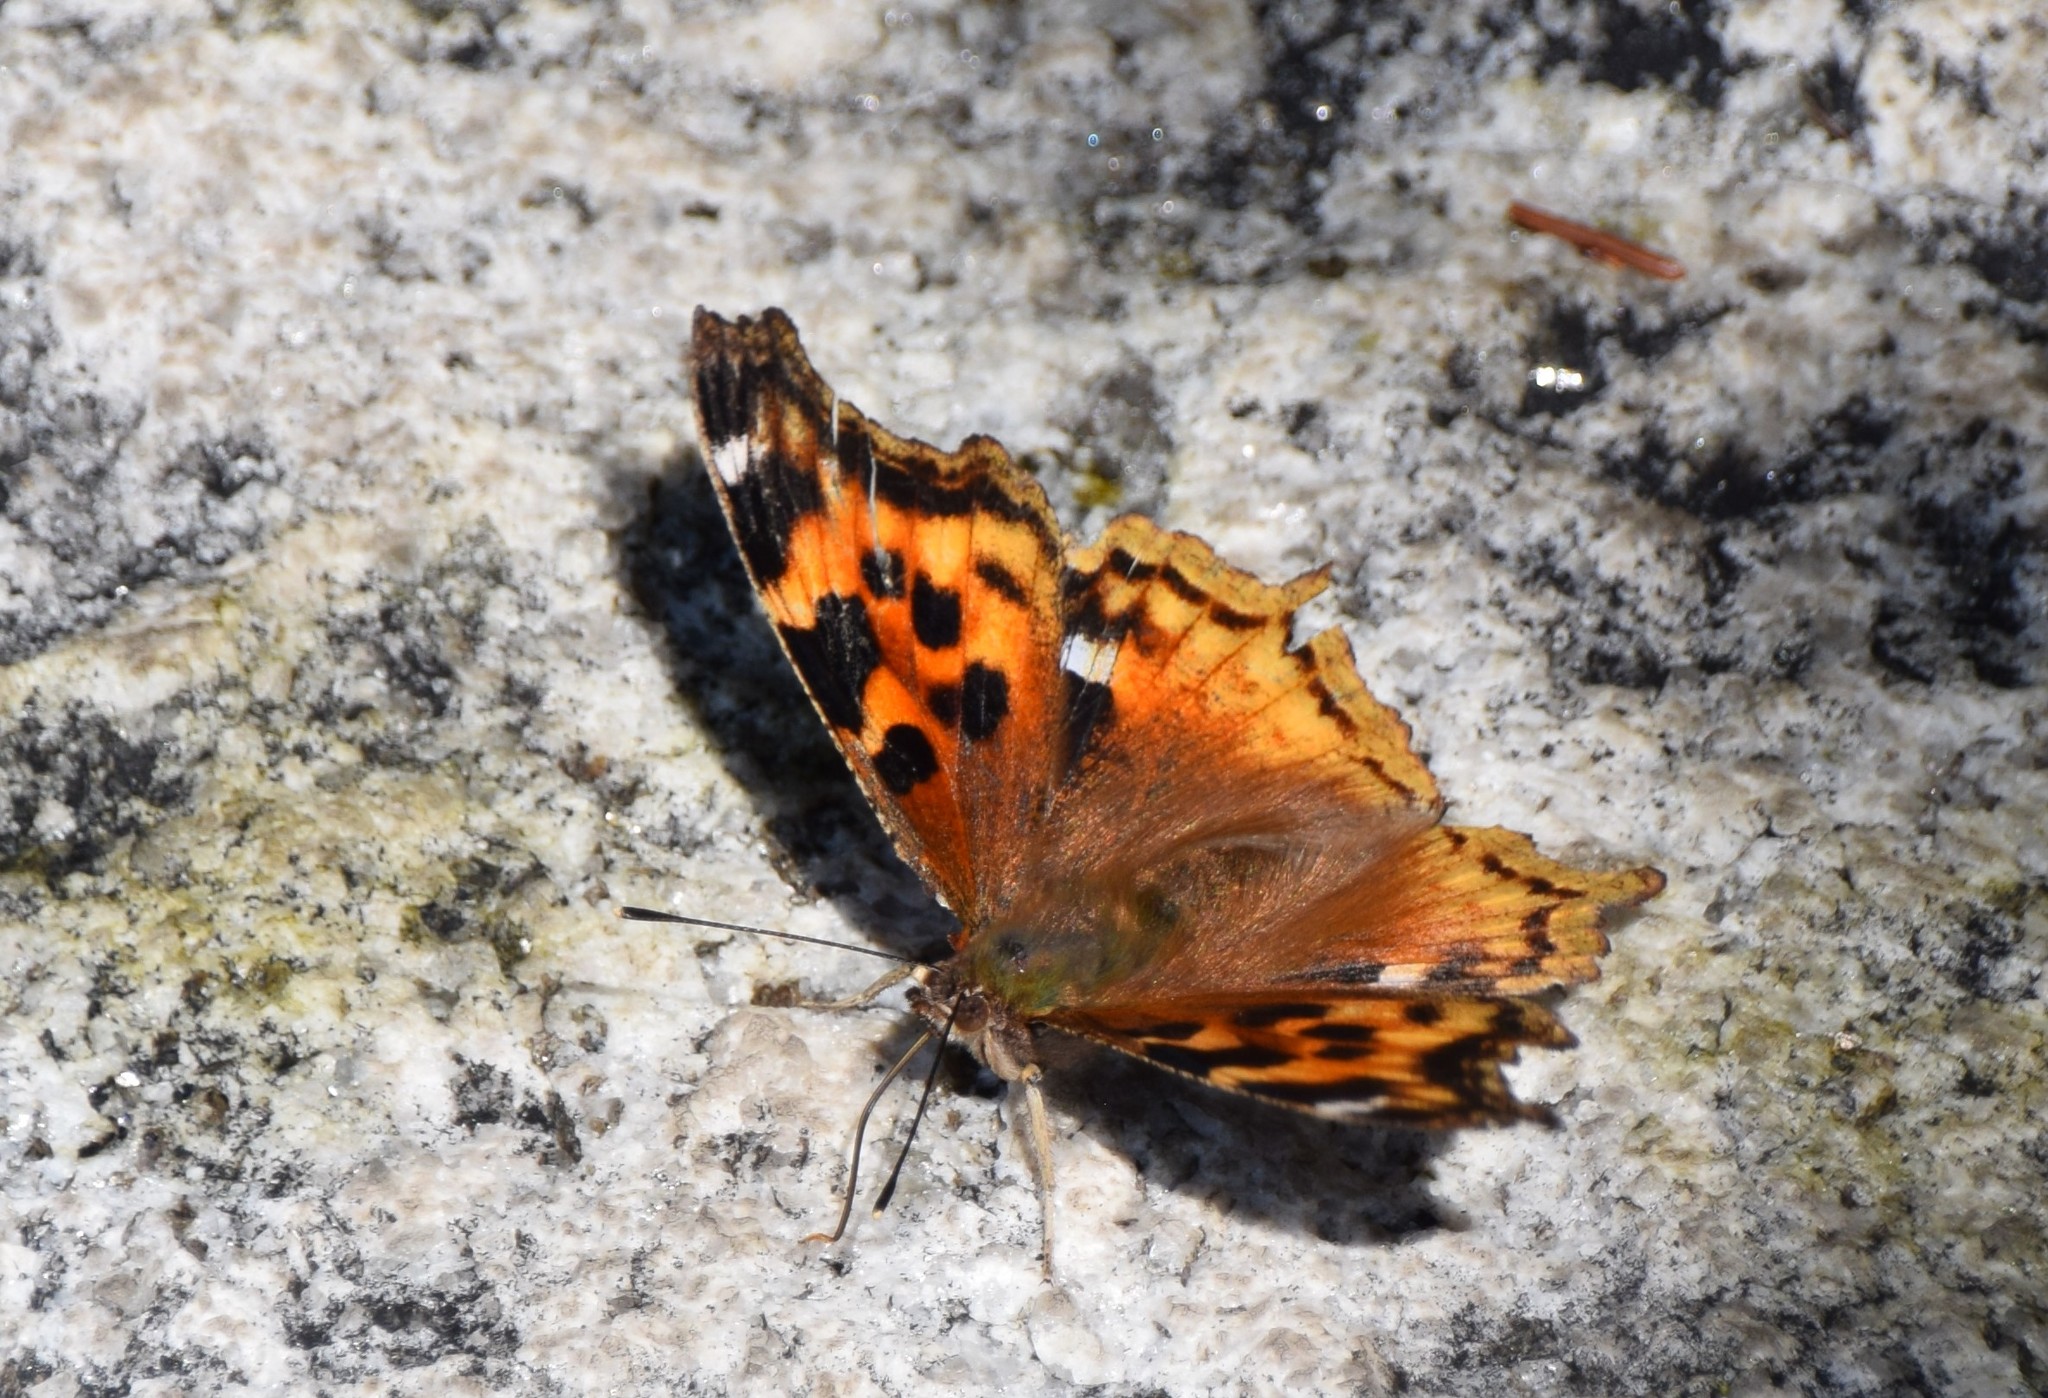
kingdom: Animalia
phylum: Arthropoda
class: Insecta
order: Lepidoptera
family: Nymphalidae
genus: Polygonia
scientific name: Polygonia vaualbum
